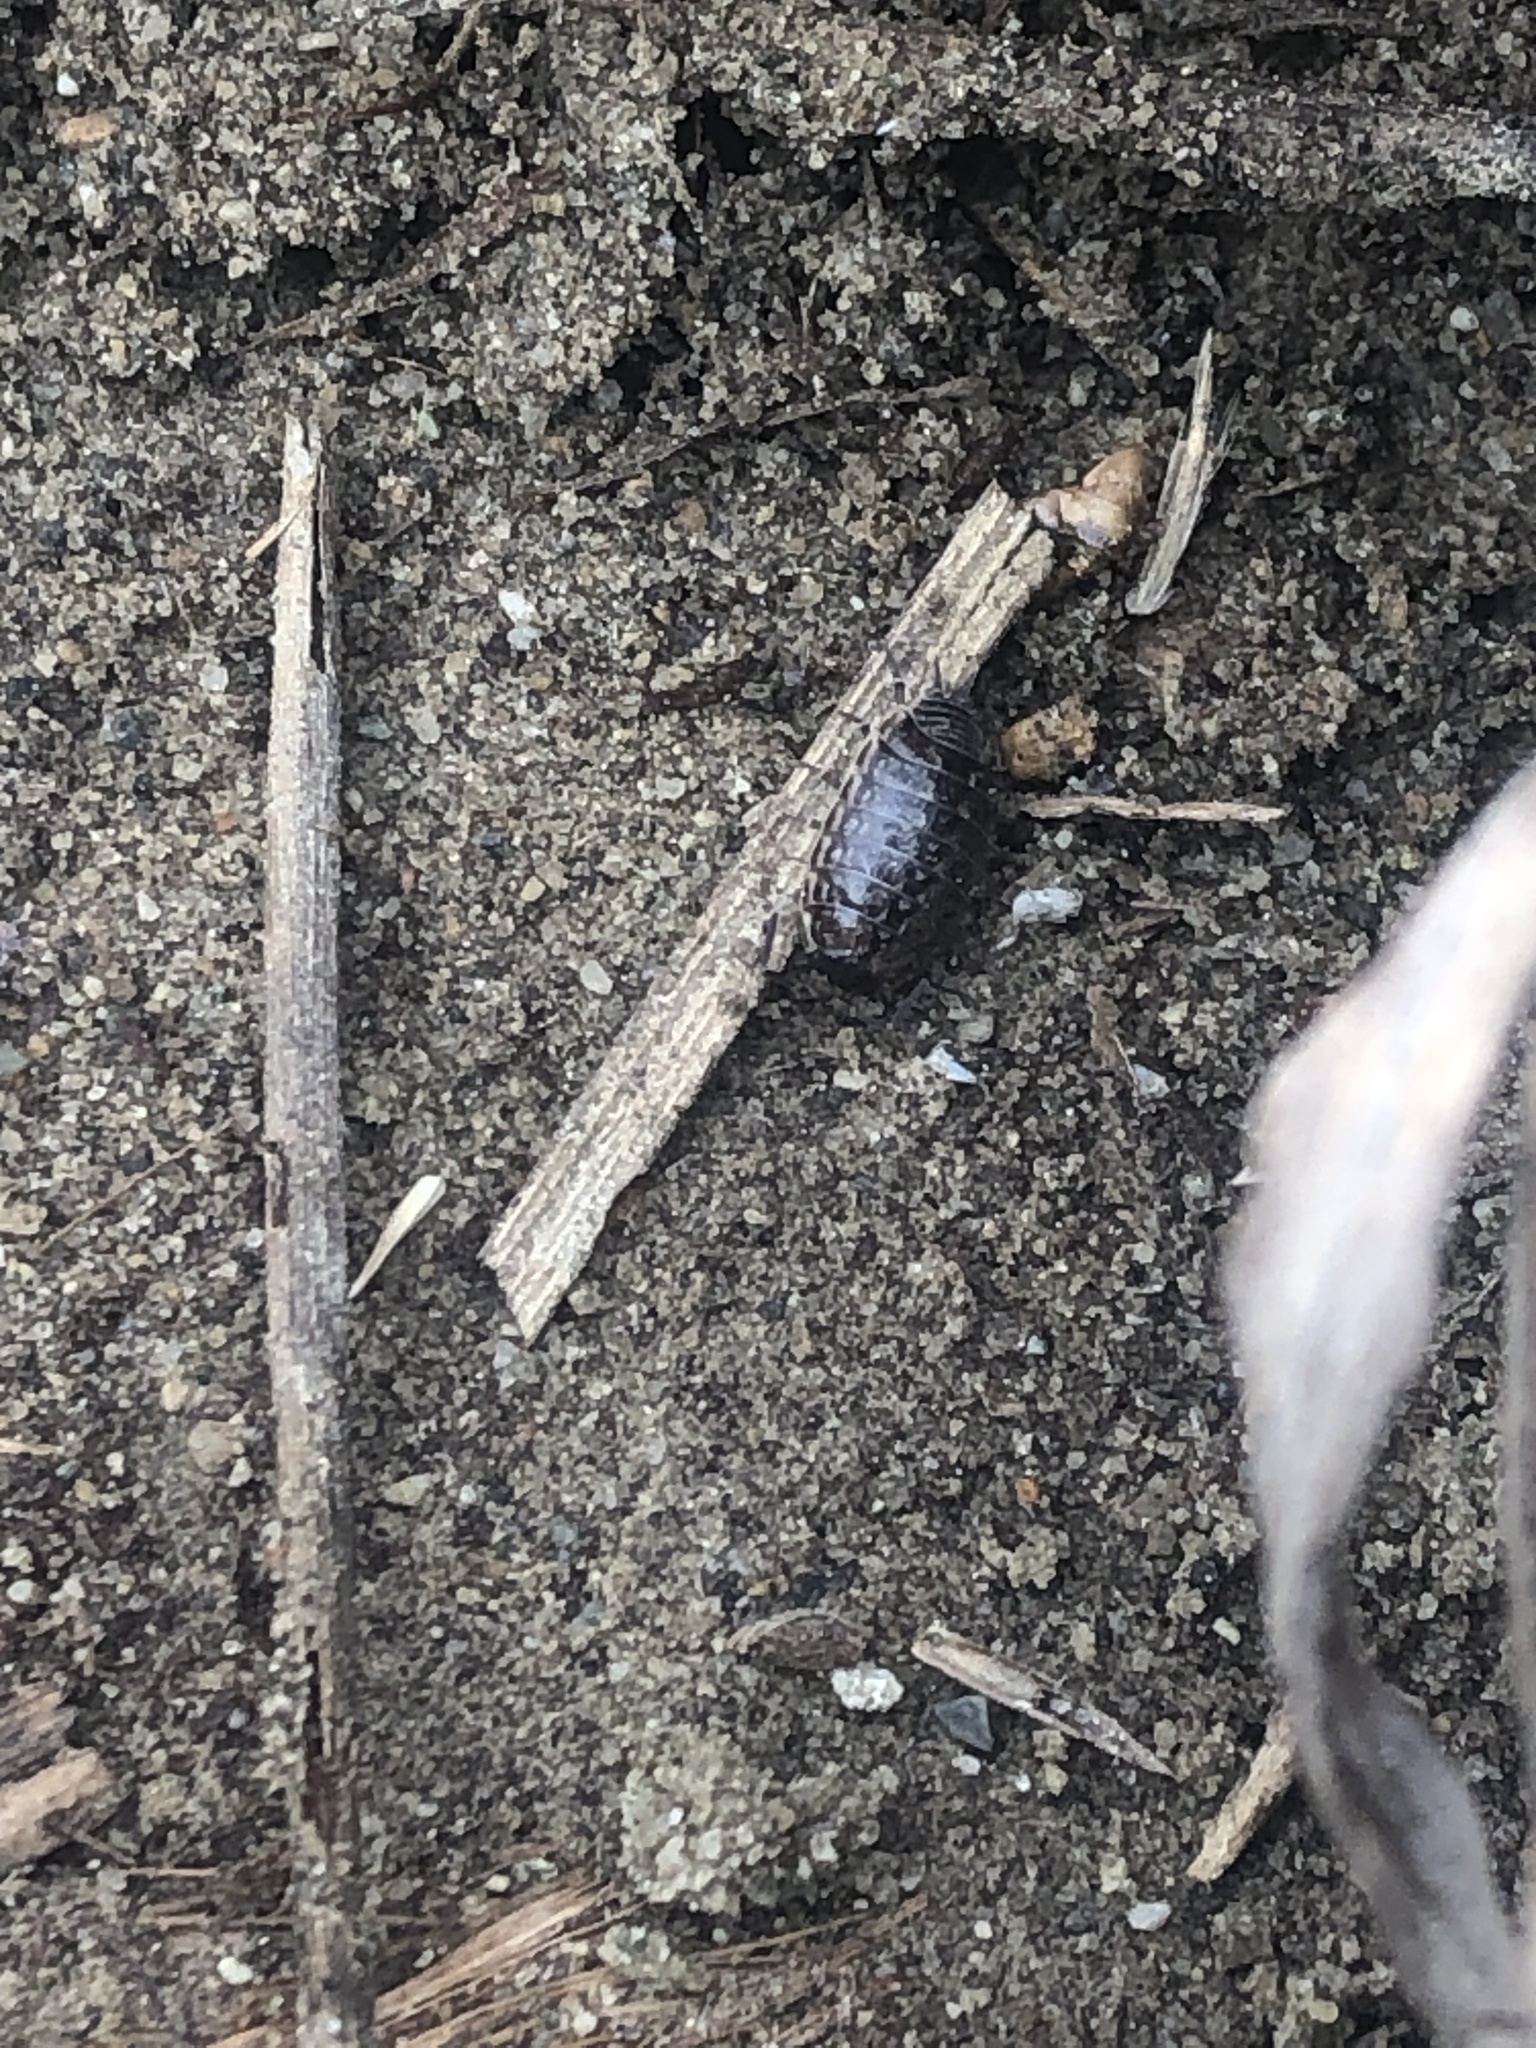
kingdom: Animalia
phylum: Arthropoda
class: Malacostraca
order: Isopoda
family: Philosciidae
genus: Philoscia
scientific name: Philoscia muscorum
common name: Common striped woodlouse
